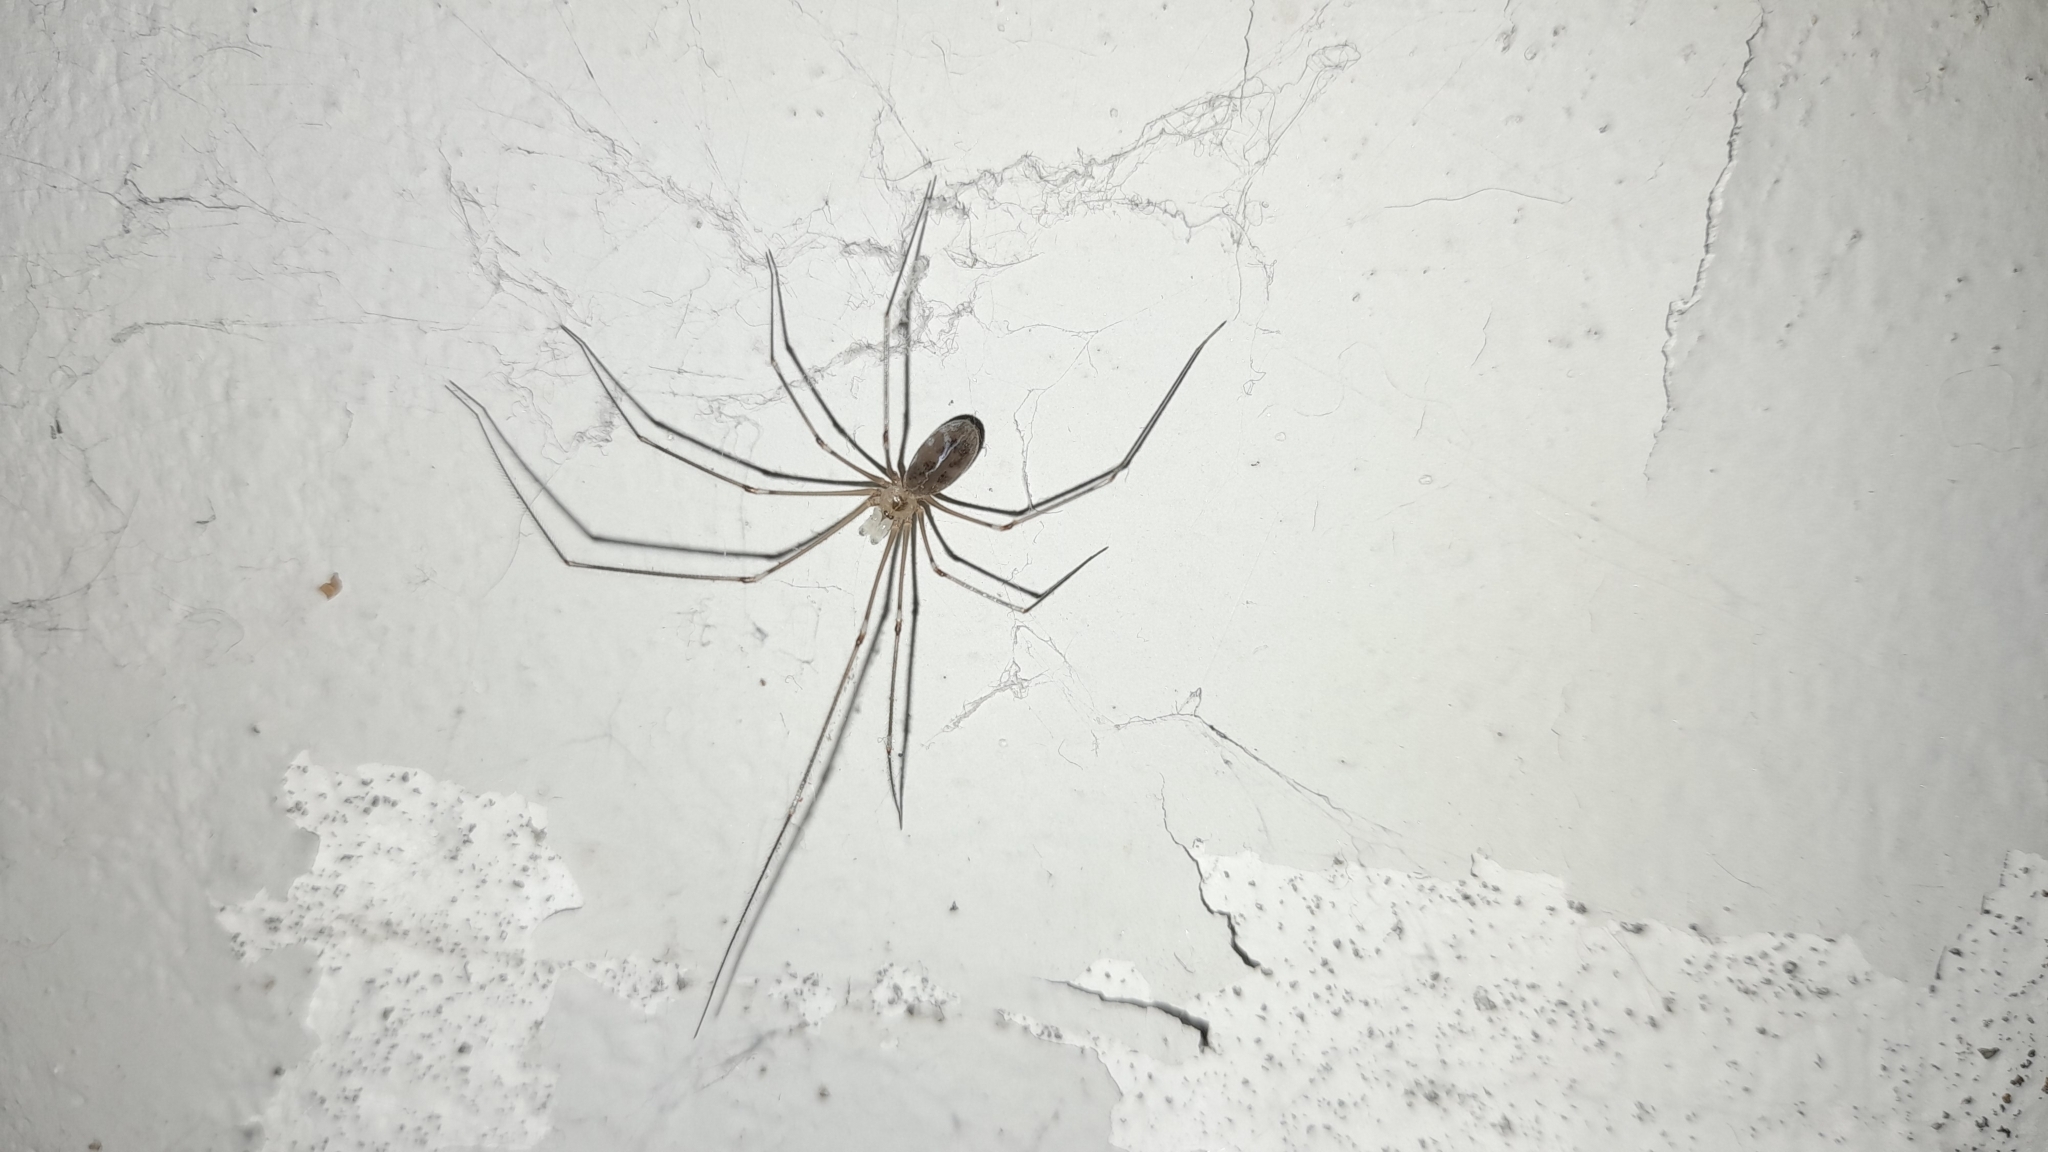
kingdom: Animalia
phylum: Arthropoda
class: Arachnida
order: Araneae
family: Pholcidae
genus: Pholcus
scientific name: Pholcus phalangioides
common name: Longbodied cellar spider
